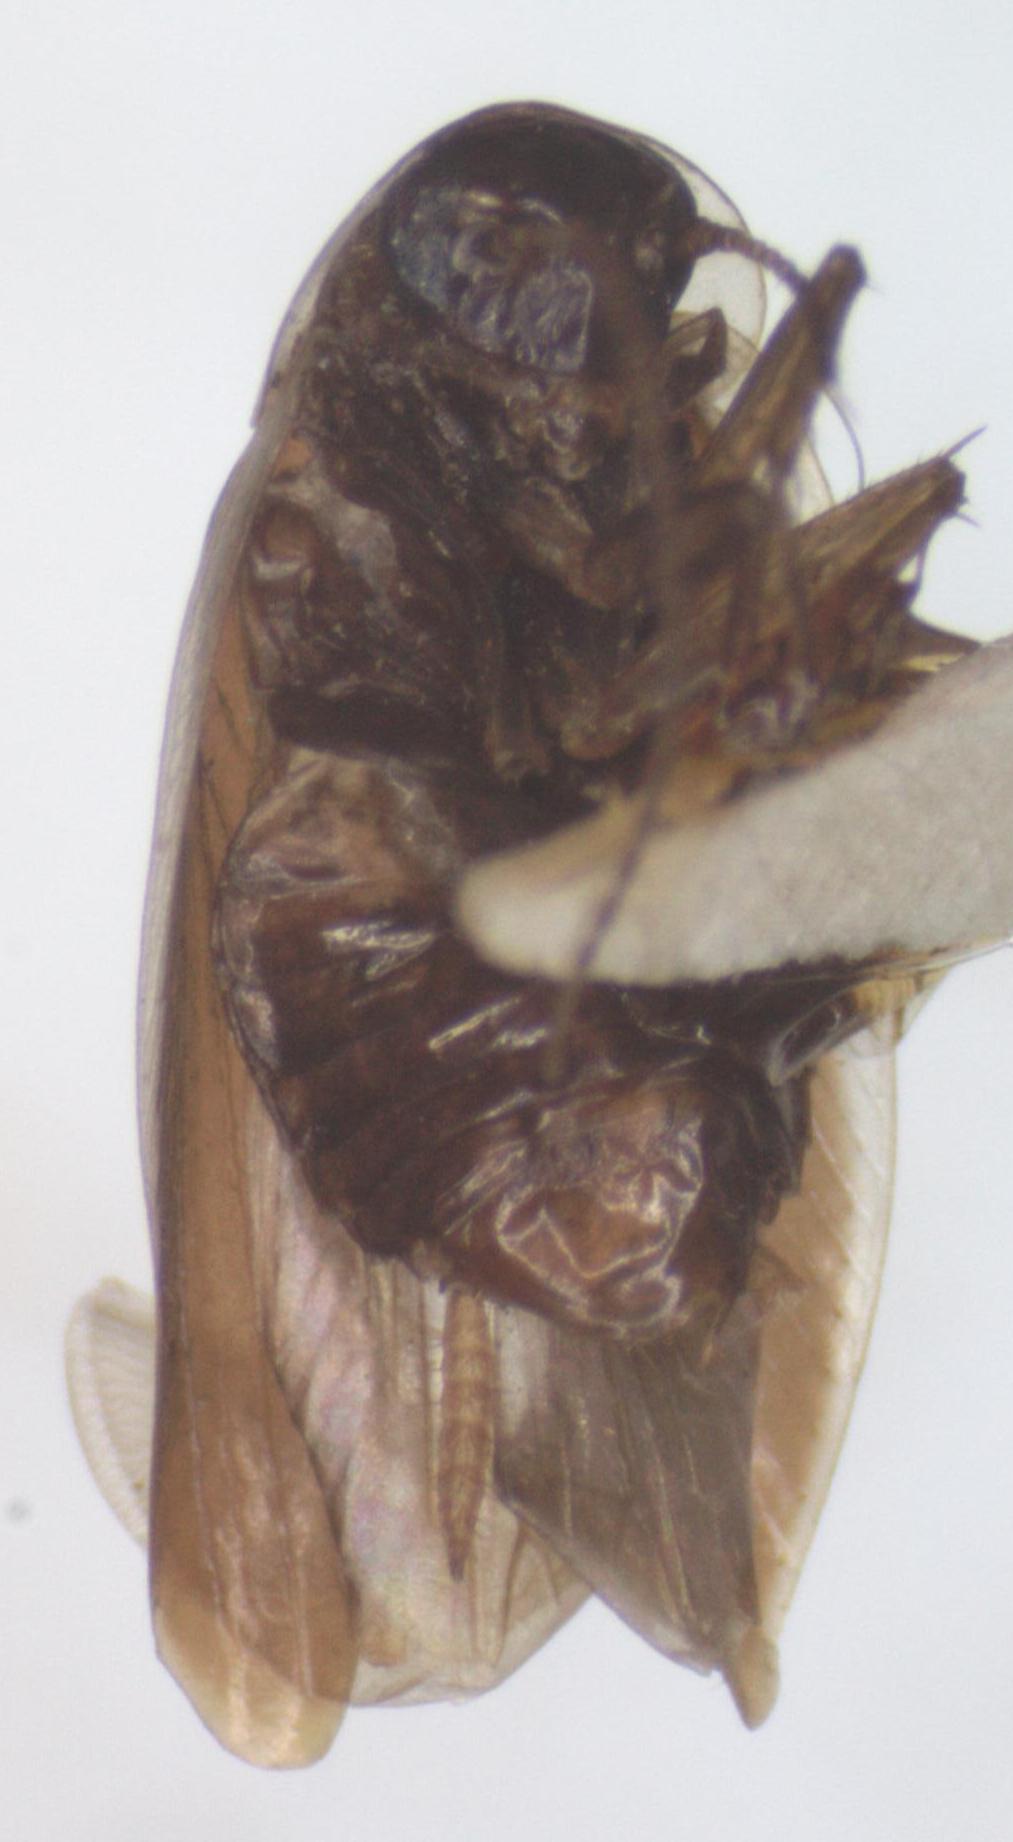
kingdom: Animalia
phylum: Arthropoda
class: Insecta
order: Blattodea
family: Anaplectidae
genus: Anaplecta
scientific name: Anaplecta fallax
